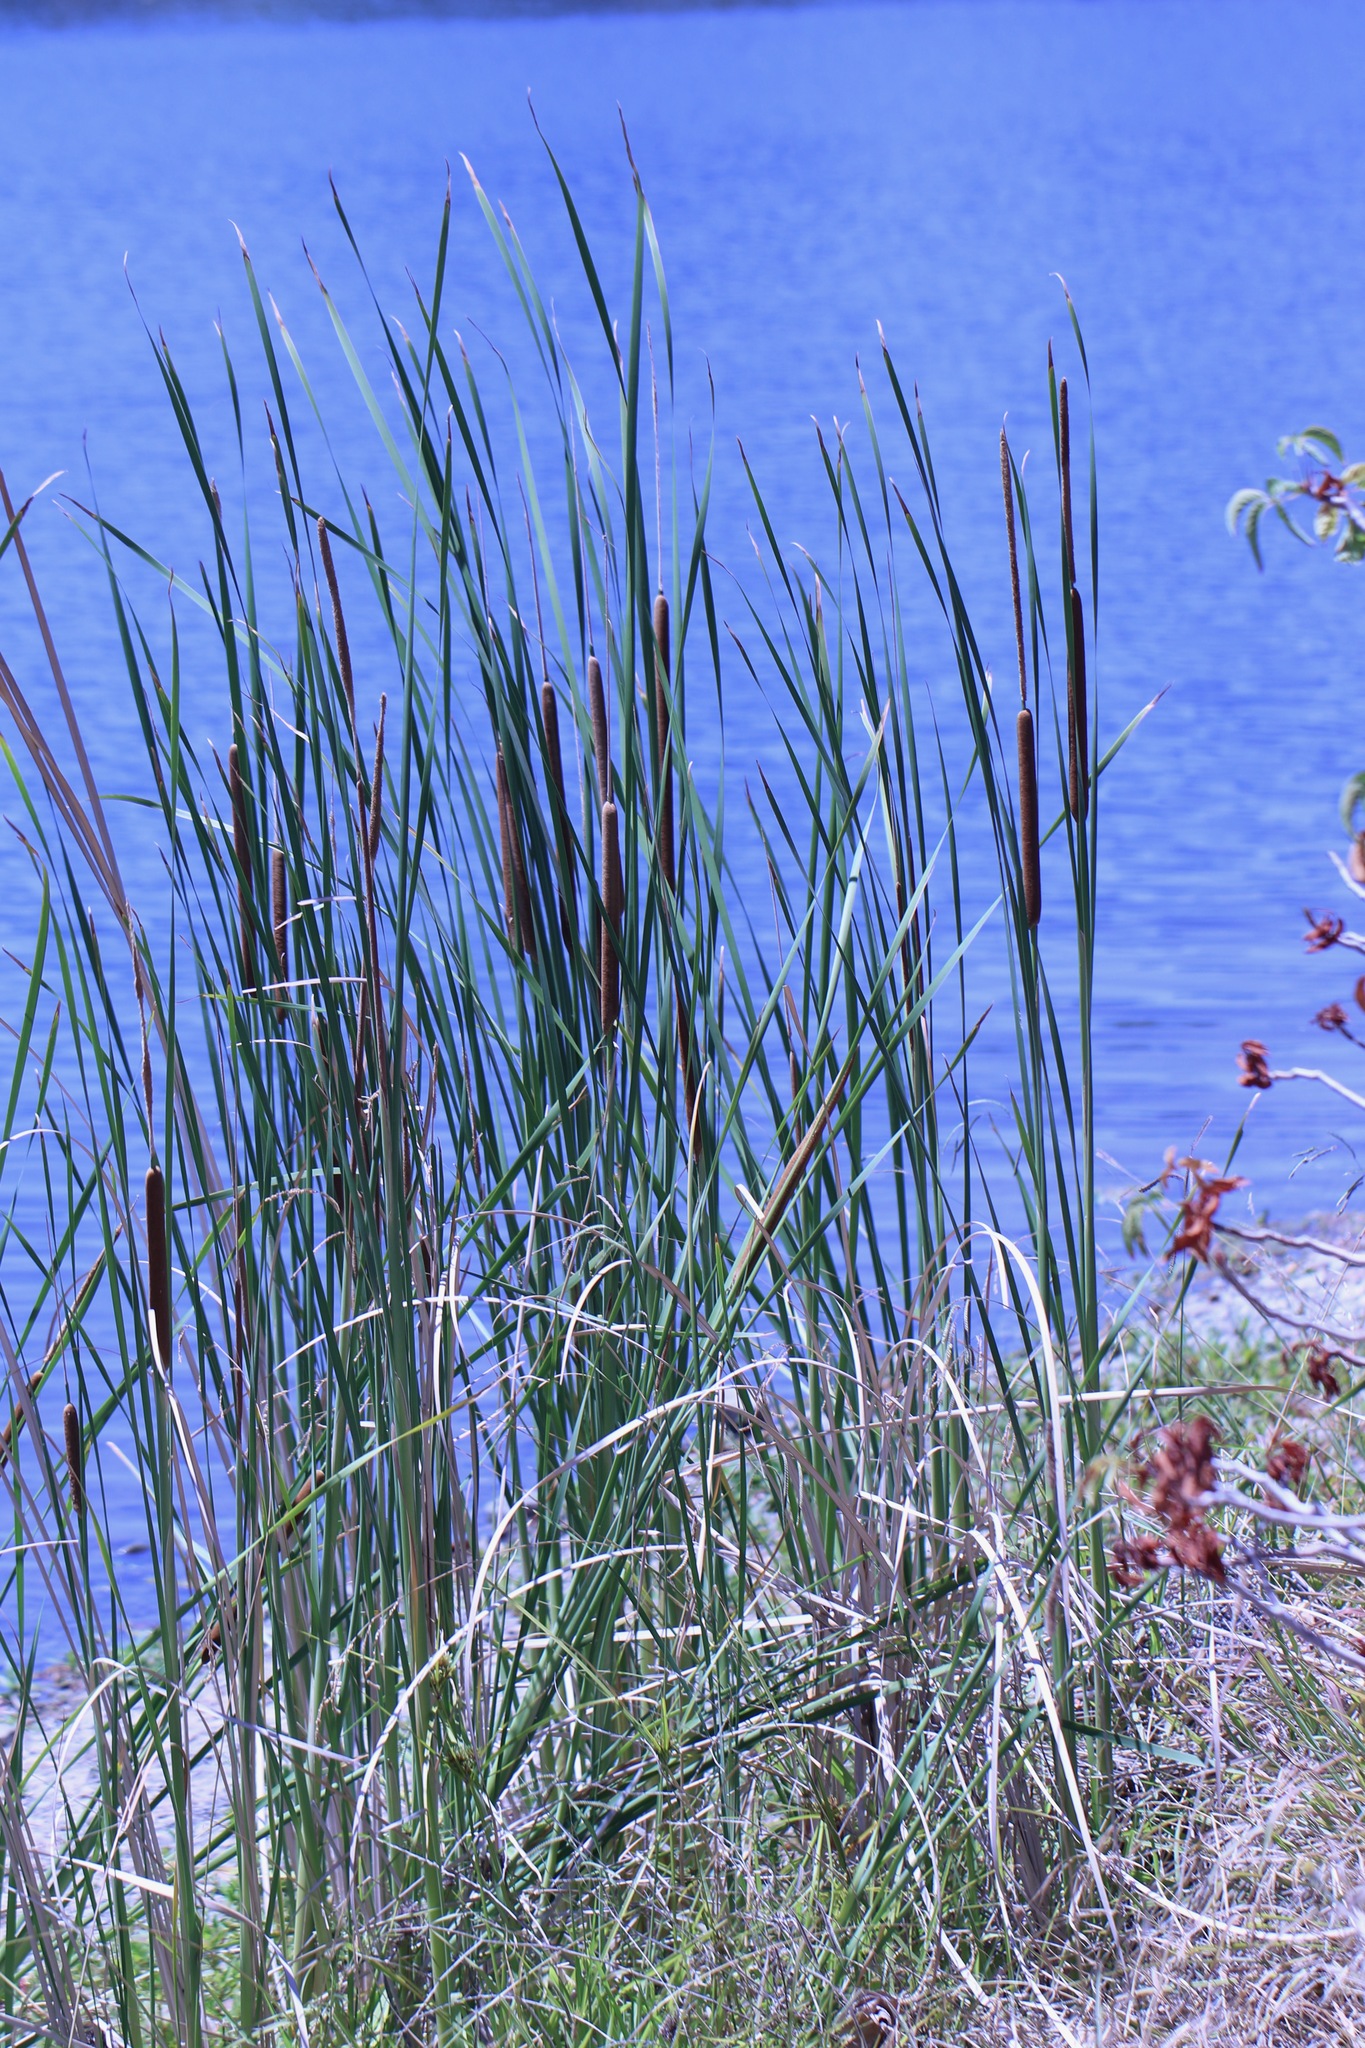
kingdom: Plantae
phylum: Tracheophyta
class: Liliopsida
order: Poales
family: Typhaceae
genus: Typha
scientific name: Typha angustifolia
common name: Lesser bulrush
